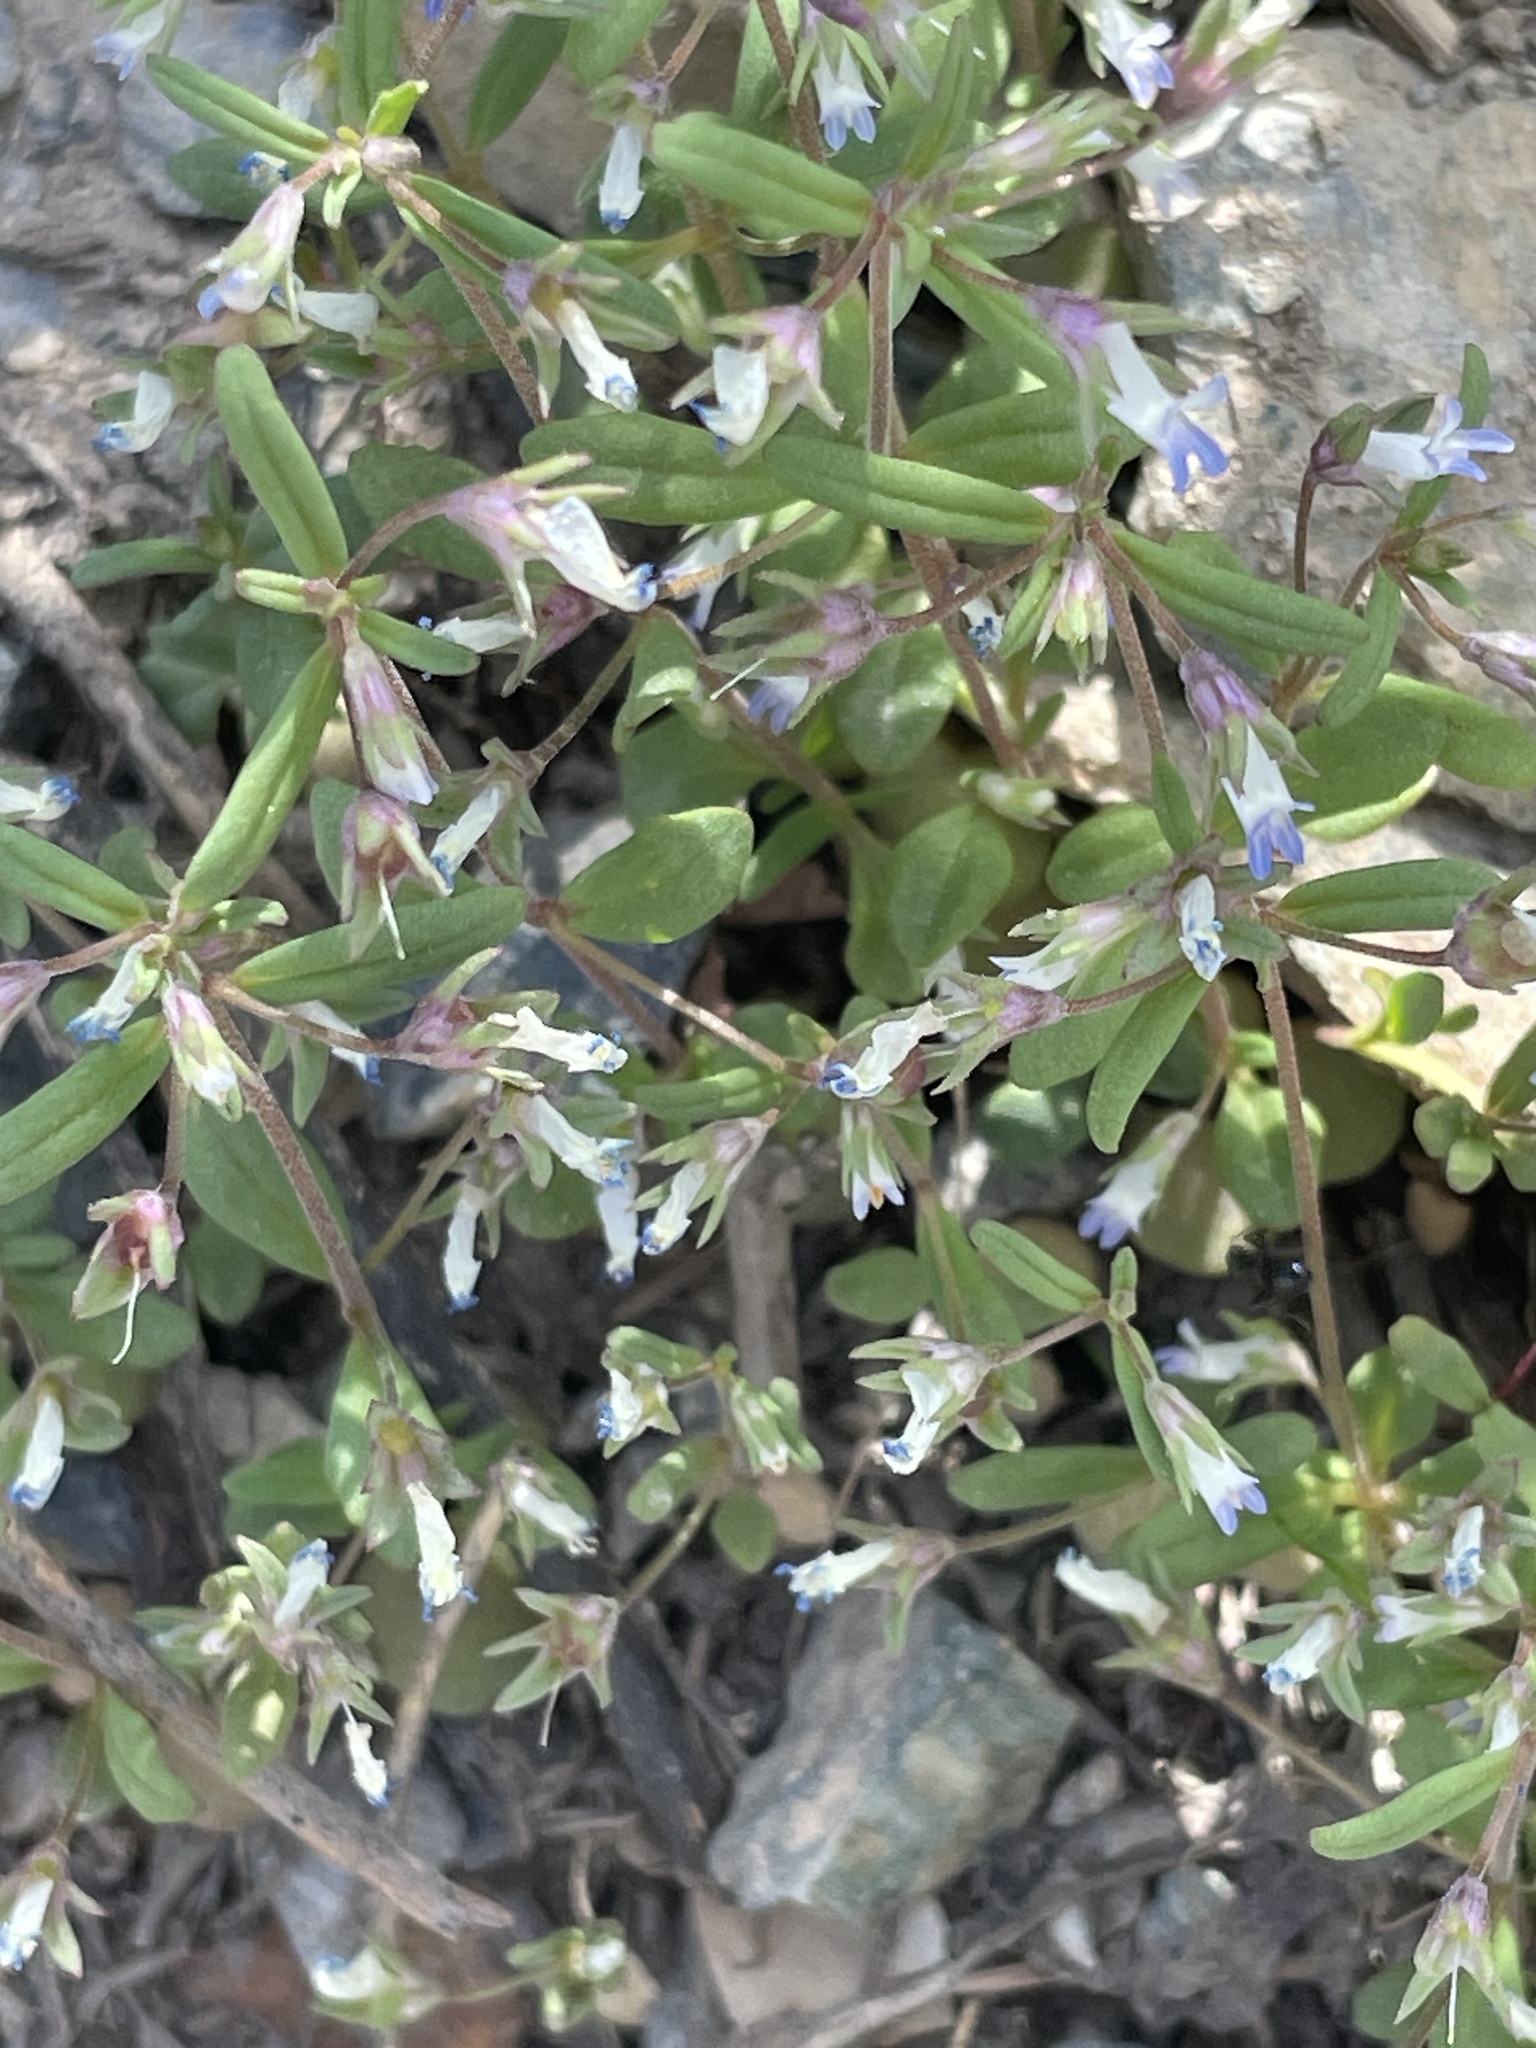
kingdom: Plantae
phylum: Tracheophyta
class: Magnoliopsida
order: Lamiales
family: Plantaginaceae
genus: Collinsia
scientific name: Collinsia parviflora
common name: Blue-lips
